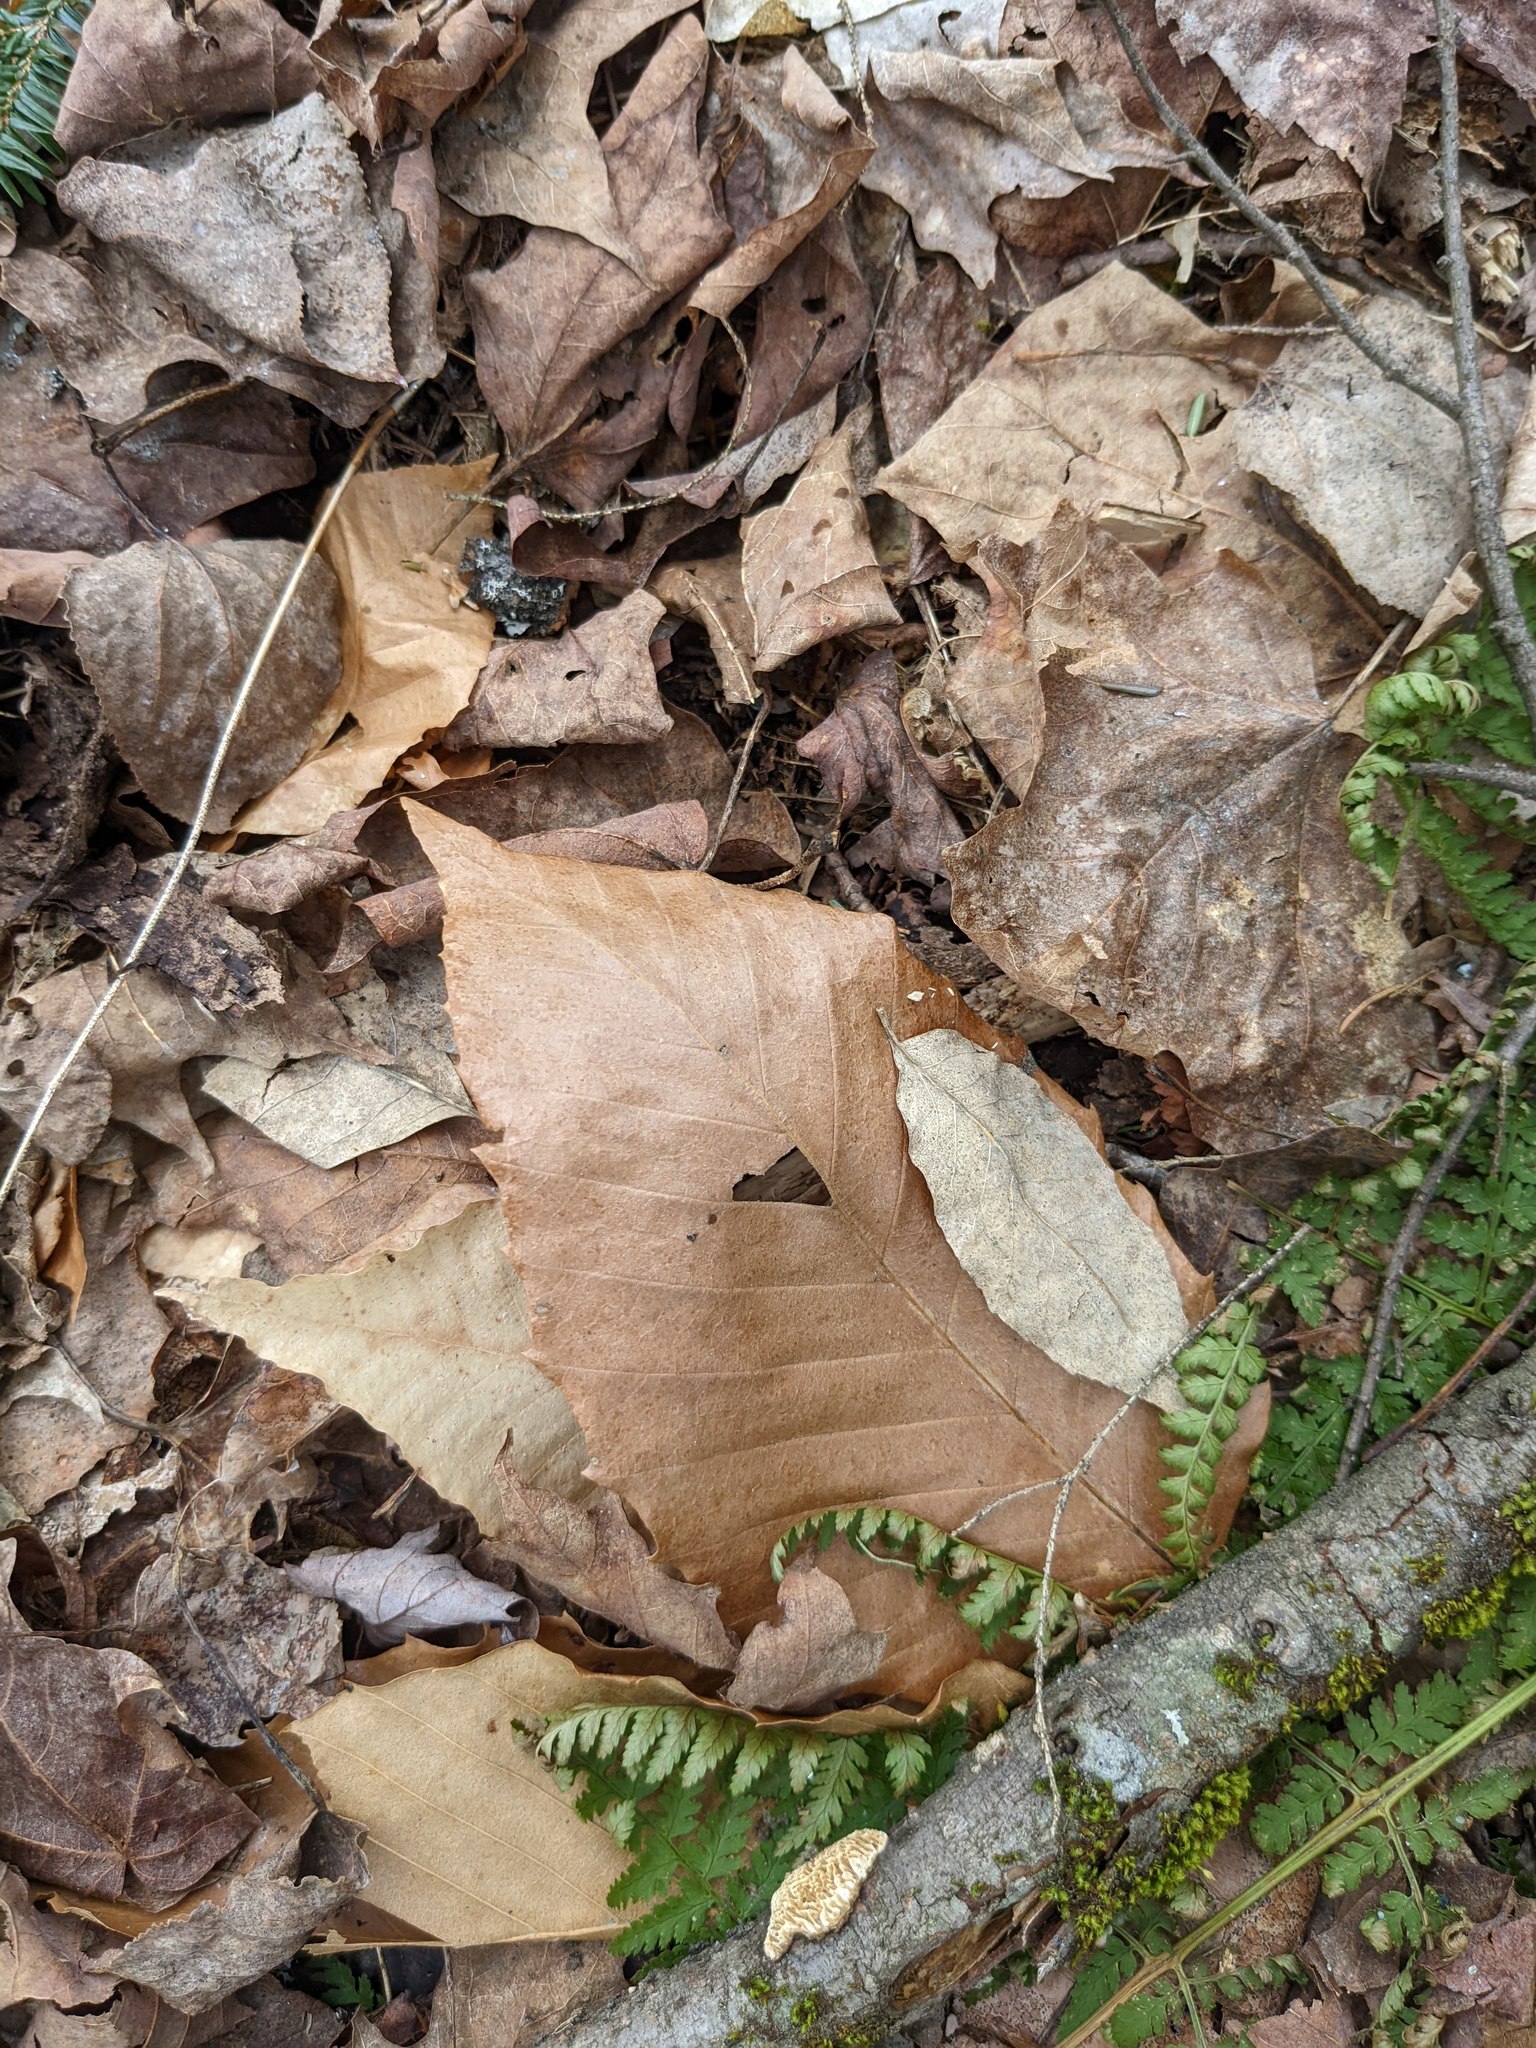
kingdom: Plantae
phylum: Tracheophyta
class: Magnoliopsida
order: Fagales
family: Fagaceae
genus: Fagus
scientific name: Fagus grandifolia
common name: American beech
